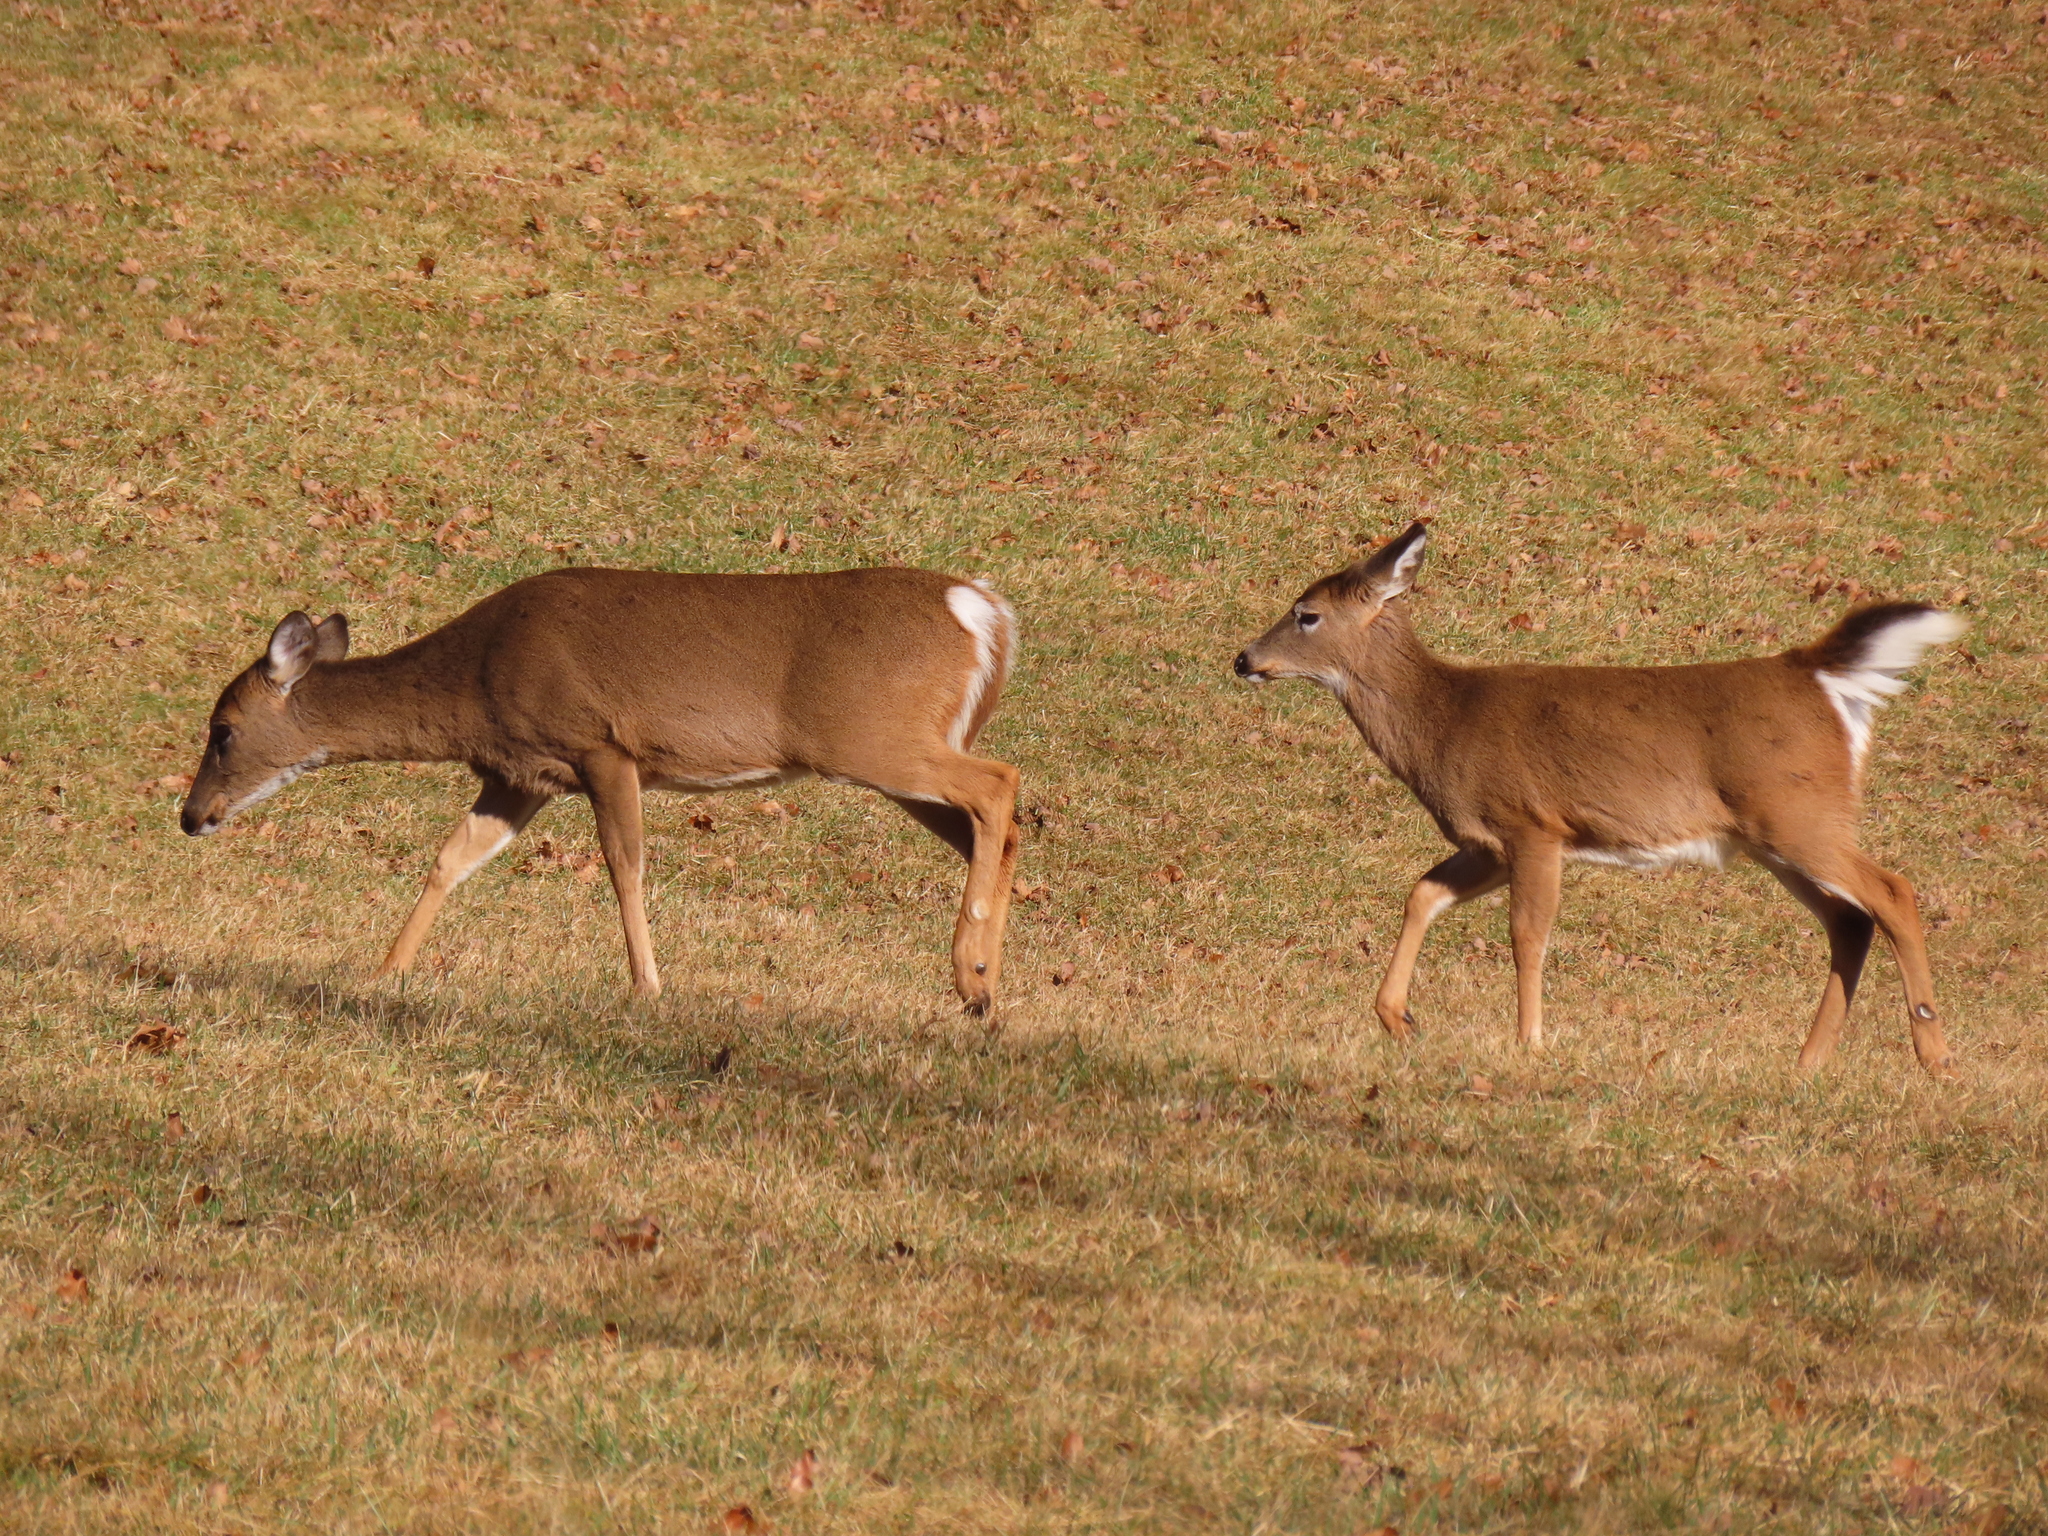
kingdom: Animalia
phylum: Chordata
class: Mammalia
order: Artiodactyla
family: Cervidae
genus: Odocoileus
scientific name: Odocoileus virginianus
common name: White-tailed deer
